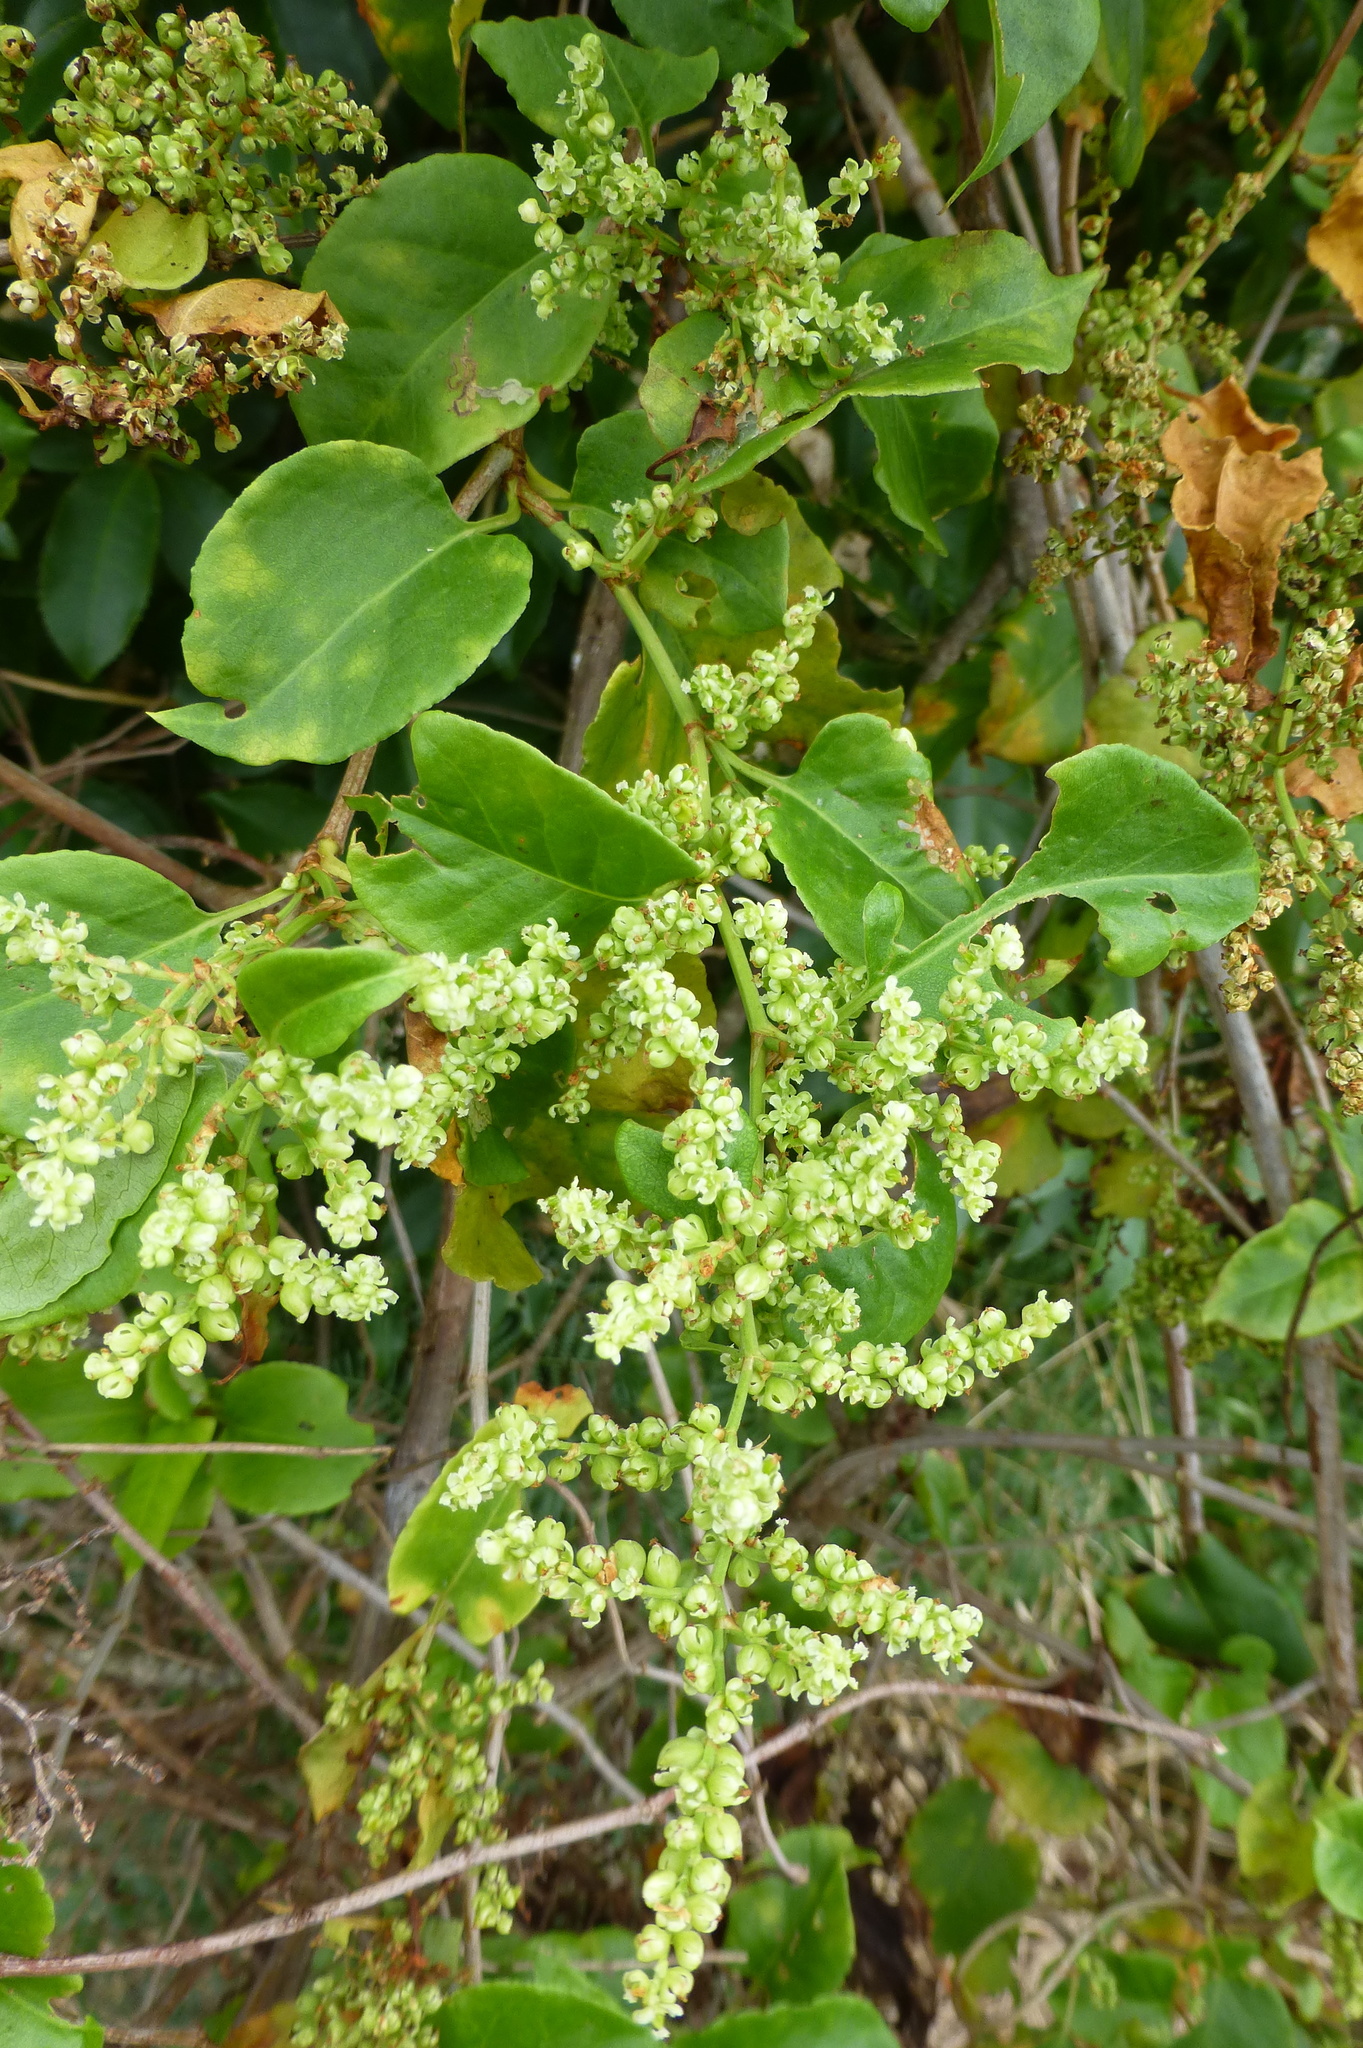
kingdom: Plantae
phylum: Tracheophyta
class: Magnoliopsida
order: Caryophyllales
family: Polygonaceae
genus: Muehlenbeckia
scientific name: Muehlenbeckia australis
